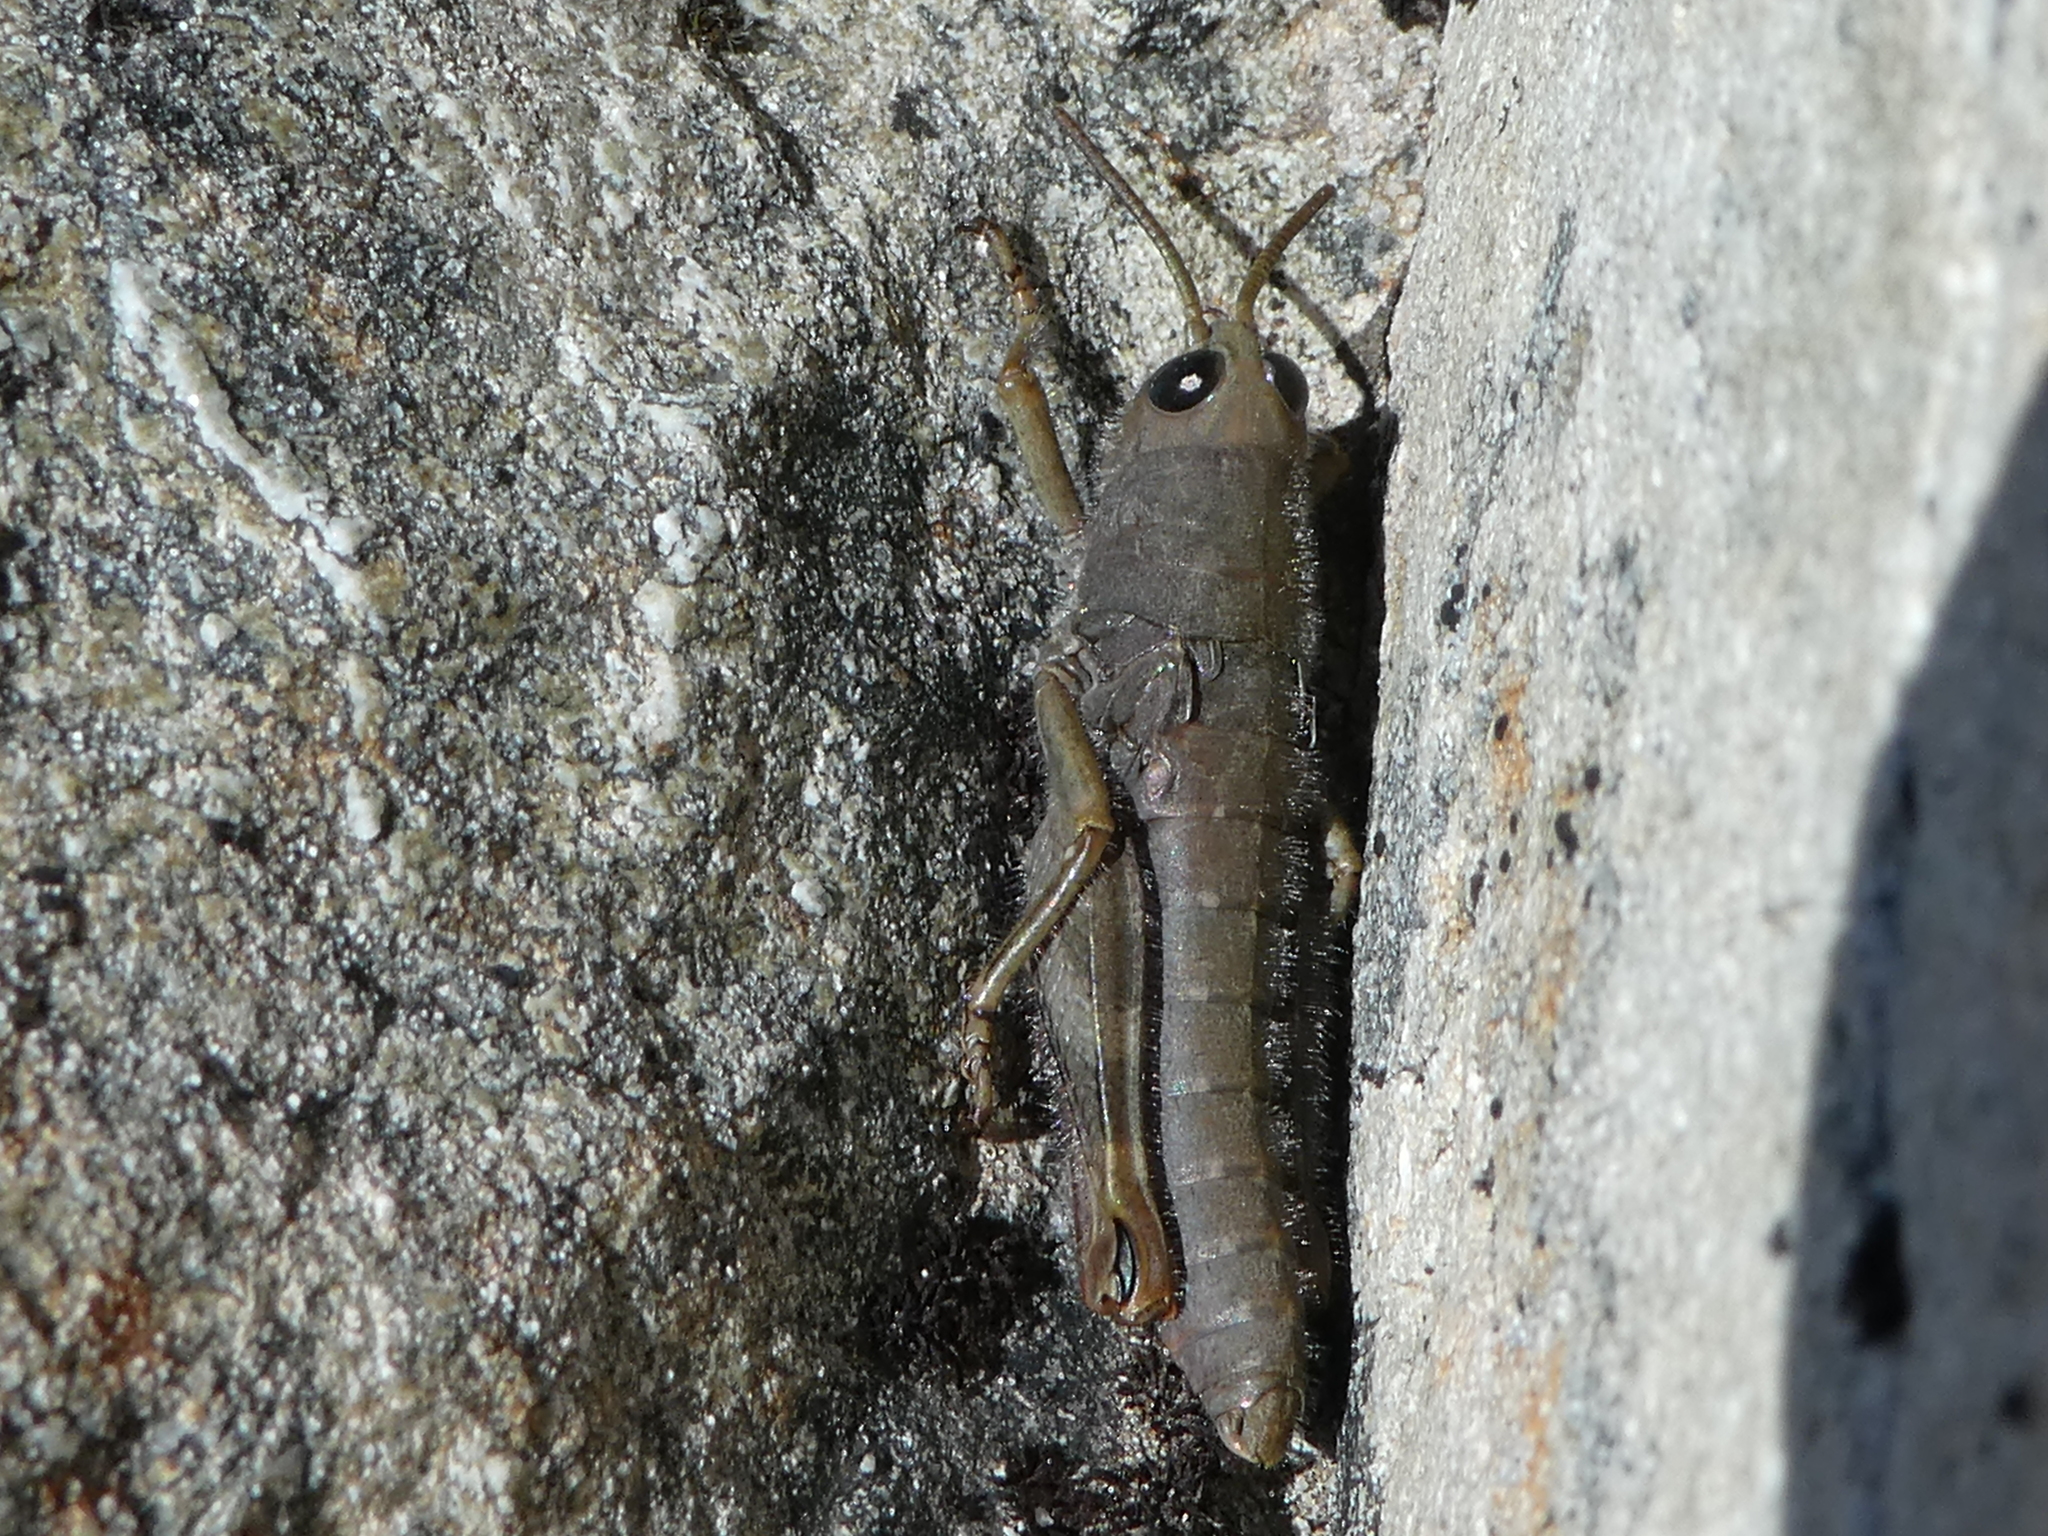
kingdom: Animalia
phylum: Arthropoda
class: Insecta
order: Orthoptera
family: Acrididae
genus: Sigaus
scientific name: Sigaus villosus
